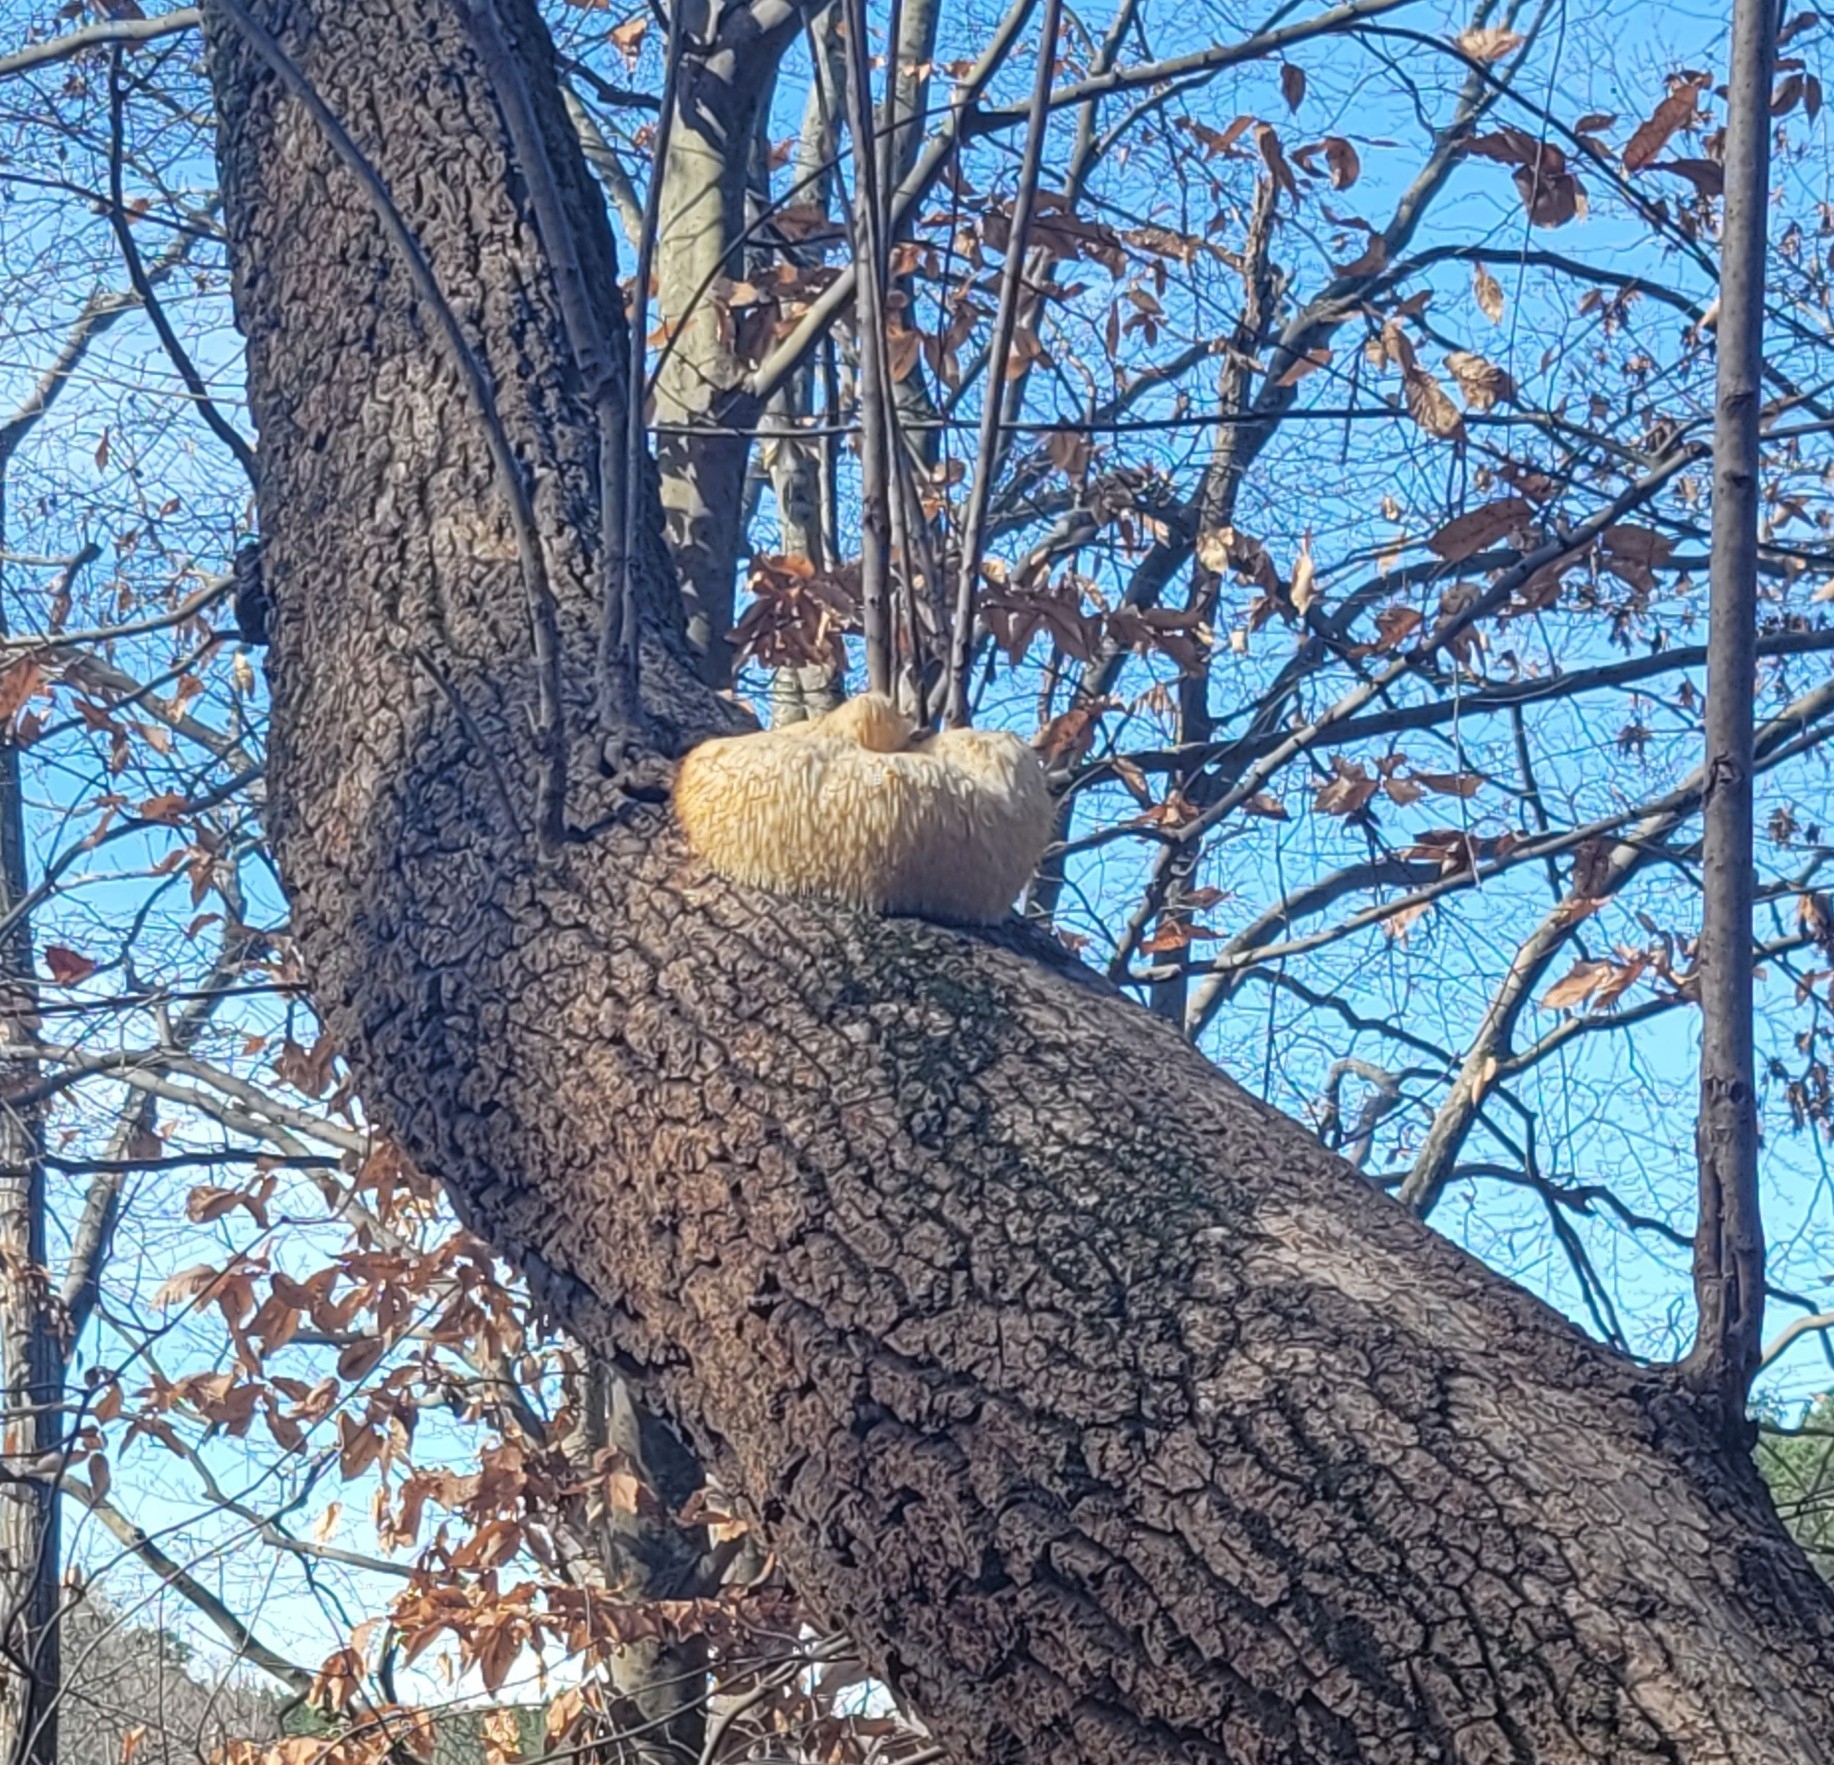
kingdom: Fungi
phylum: Basidiomycota
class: Agaricomycetes
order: Russulales
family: Hericiaceae
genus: Hericium
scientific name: Hericium erinaceus
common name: Bearded tooth
